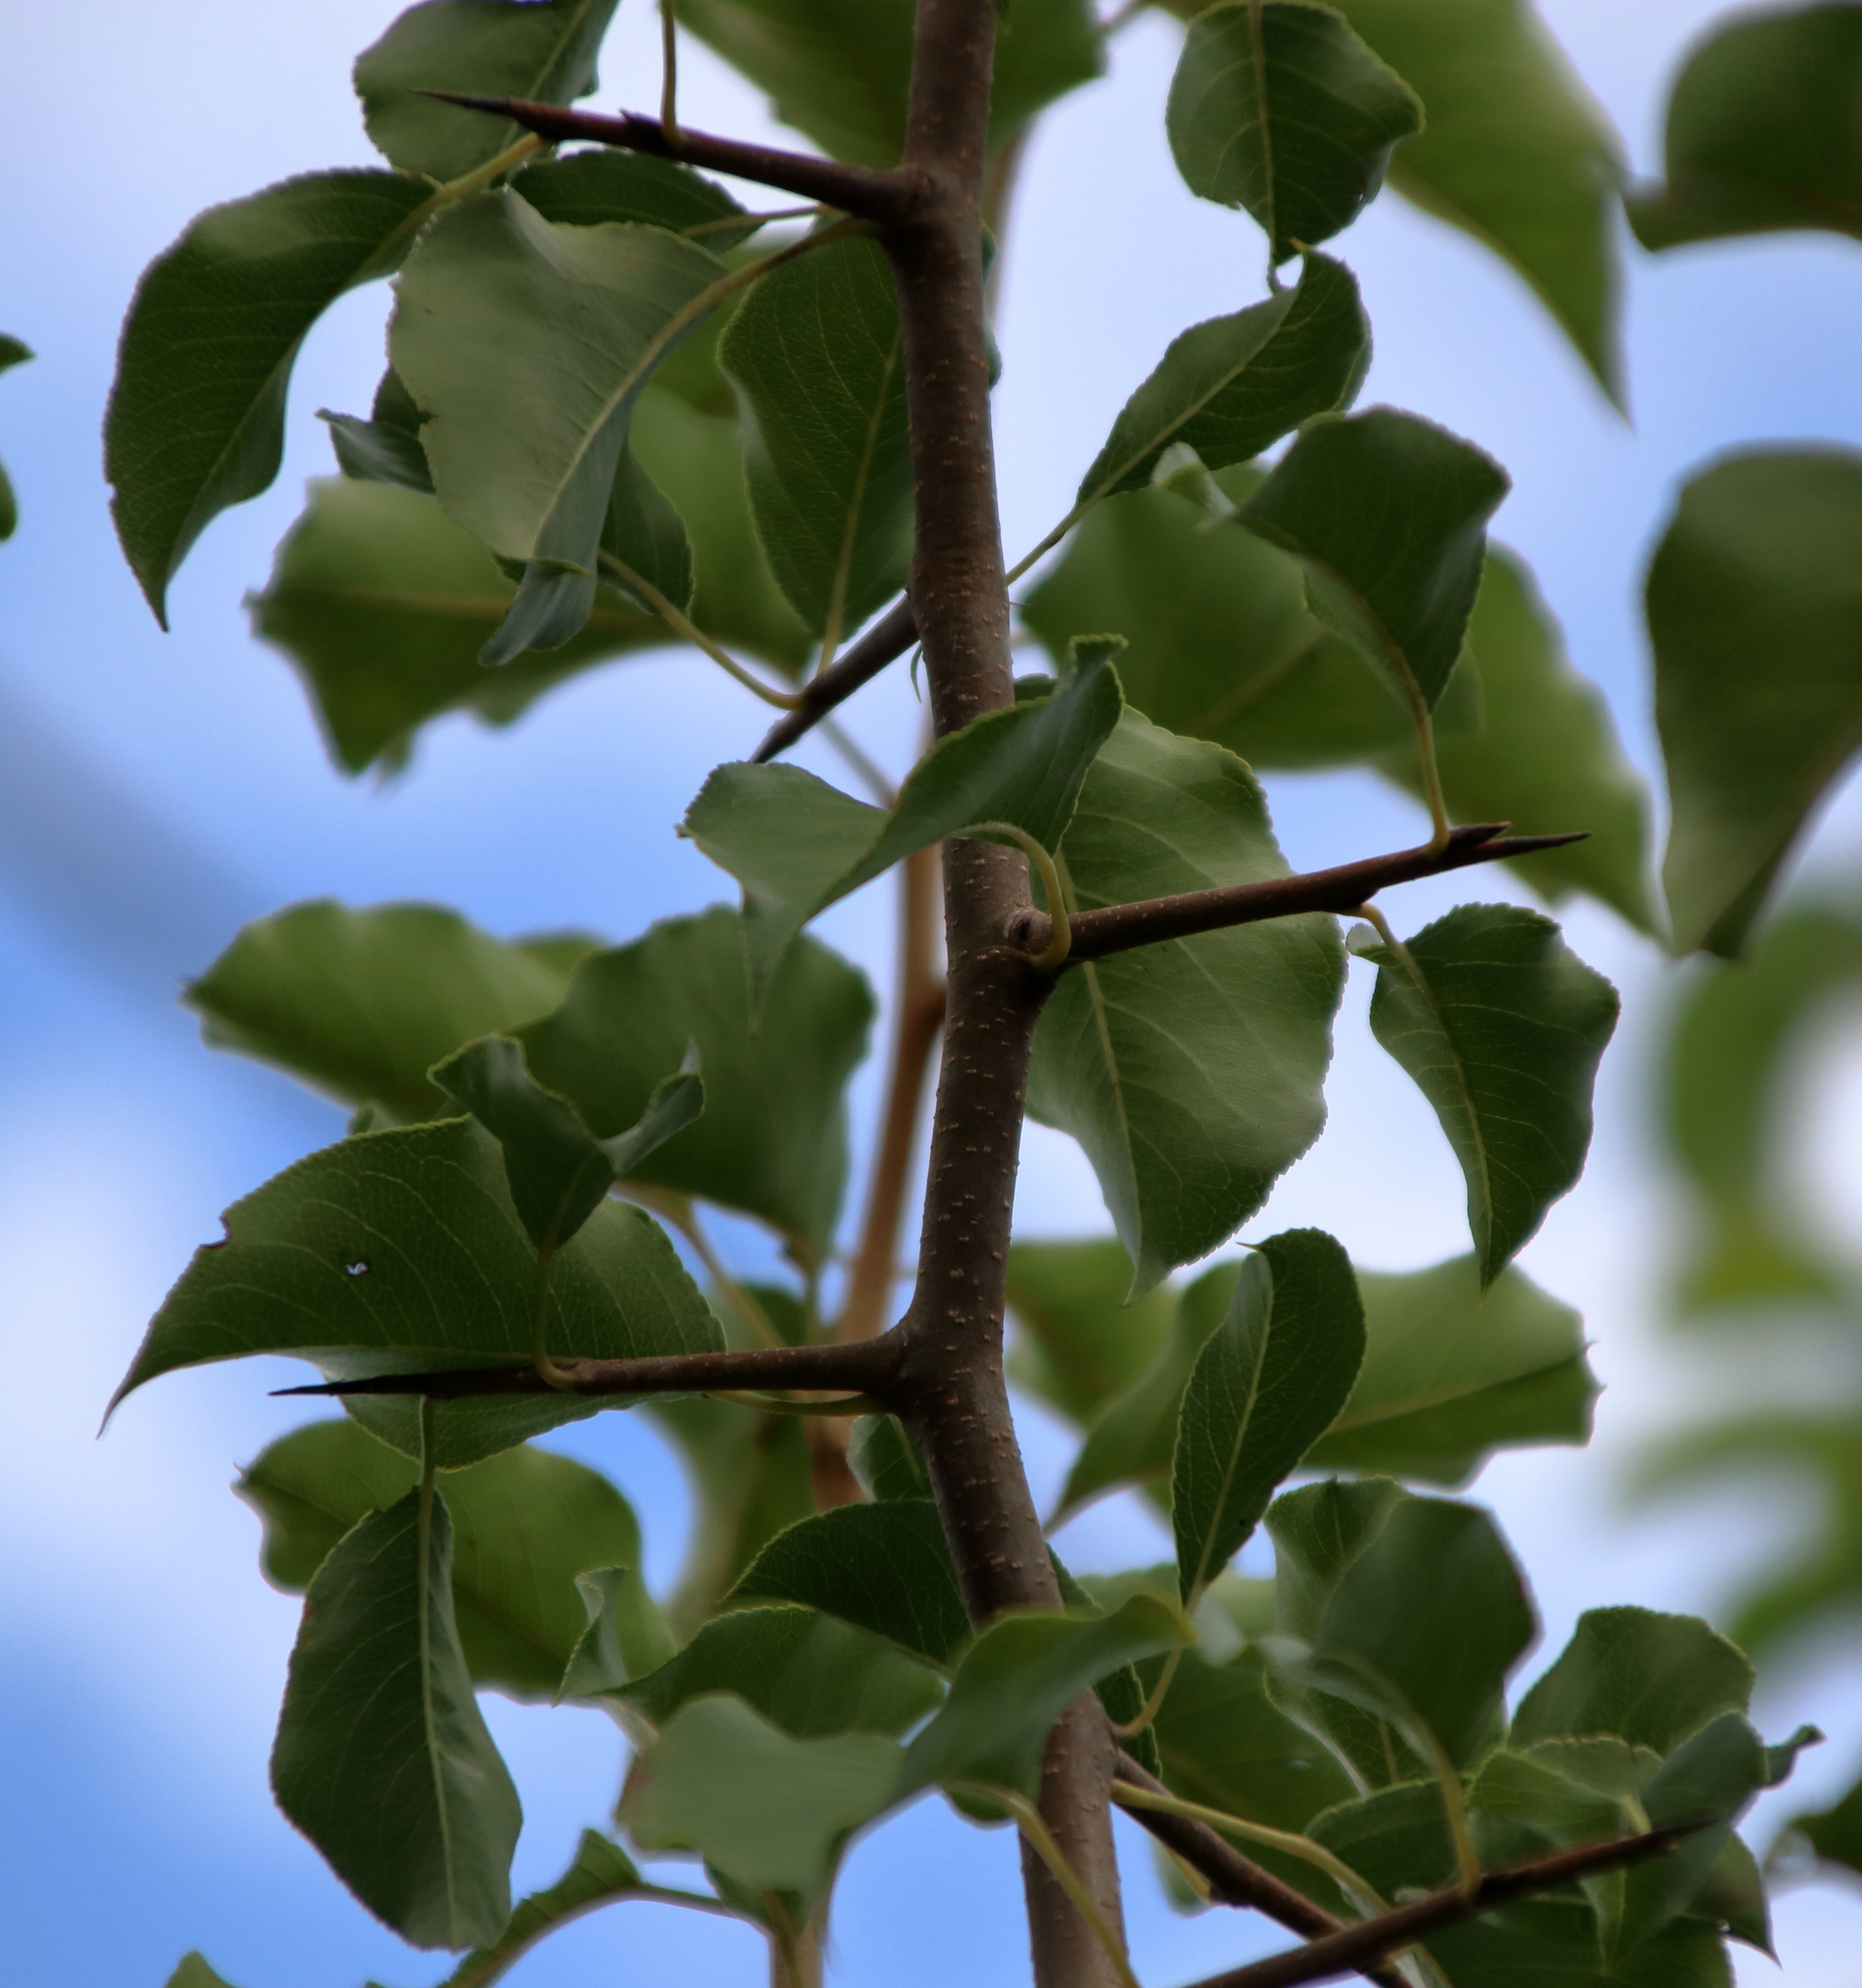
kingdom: Plantae
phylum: Tracheophyta
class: Magnoliopsida
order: Rosales
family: Rosaceae
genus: Pyrus
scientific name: Pyrus calleryana
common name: Callery pear
